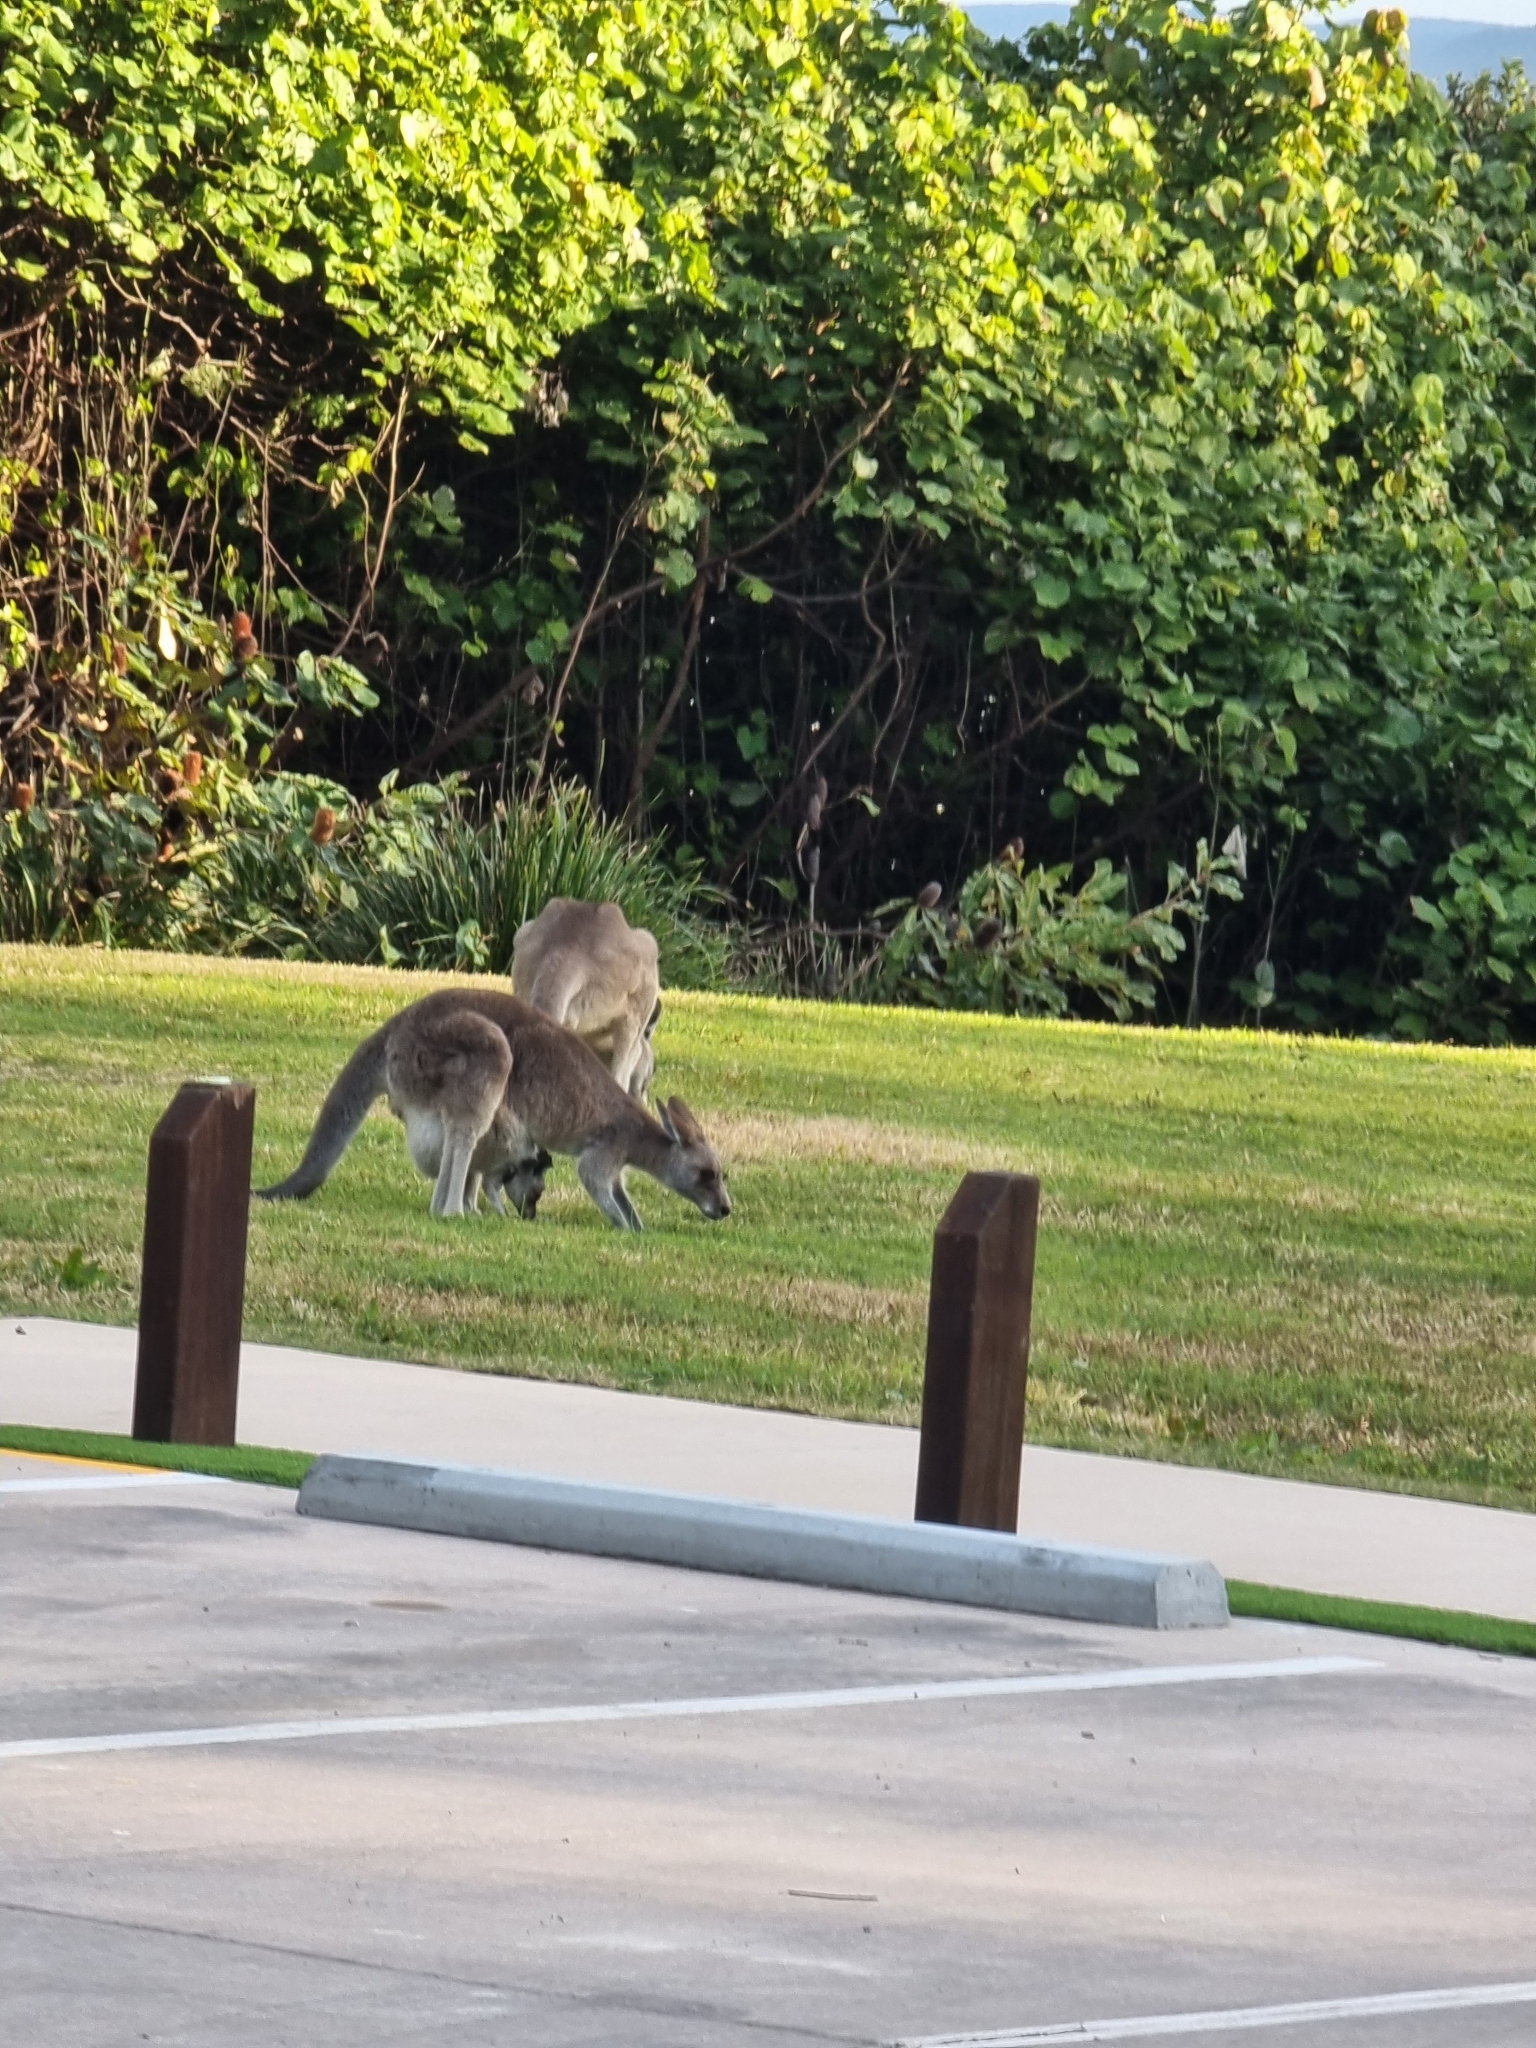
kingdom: Animalia
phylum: Chordata
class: Mammalia
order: Diprotodontia
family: Macropodidae
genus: Macropus
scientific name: Macropus giganteus
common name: Eastern grey kangaroo
